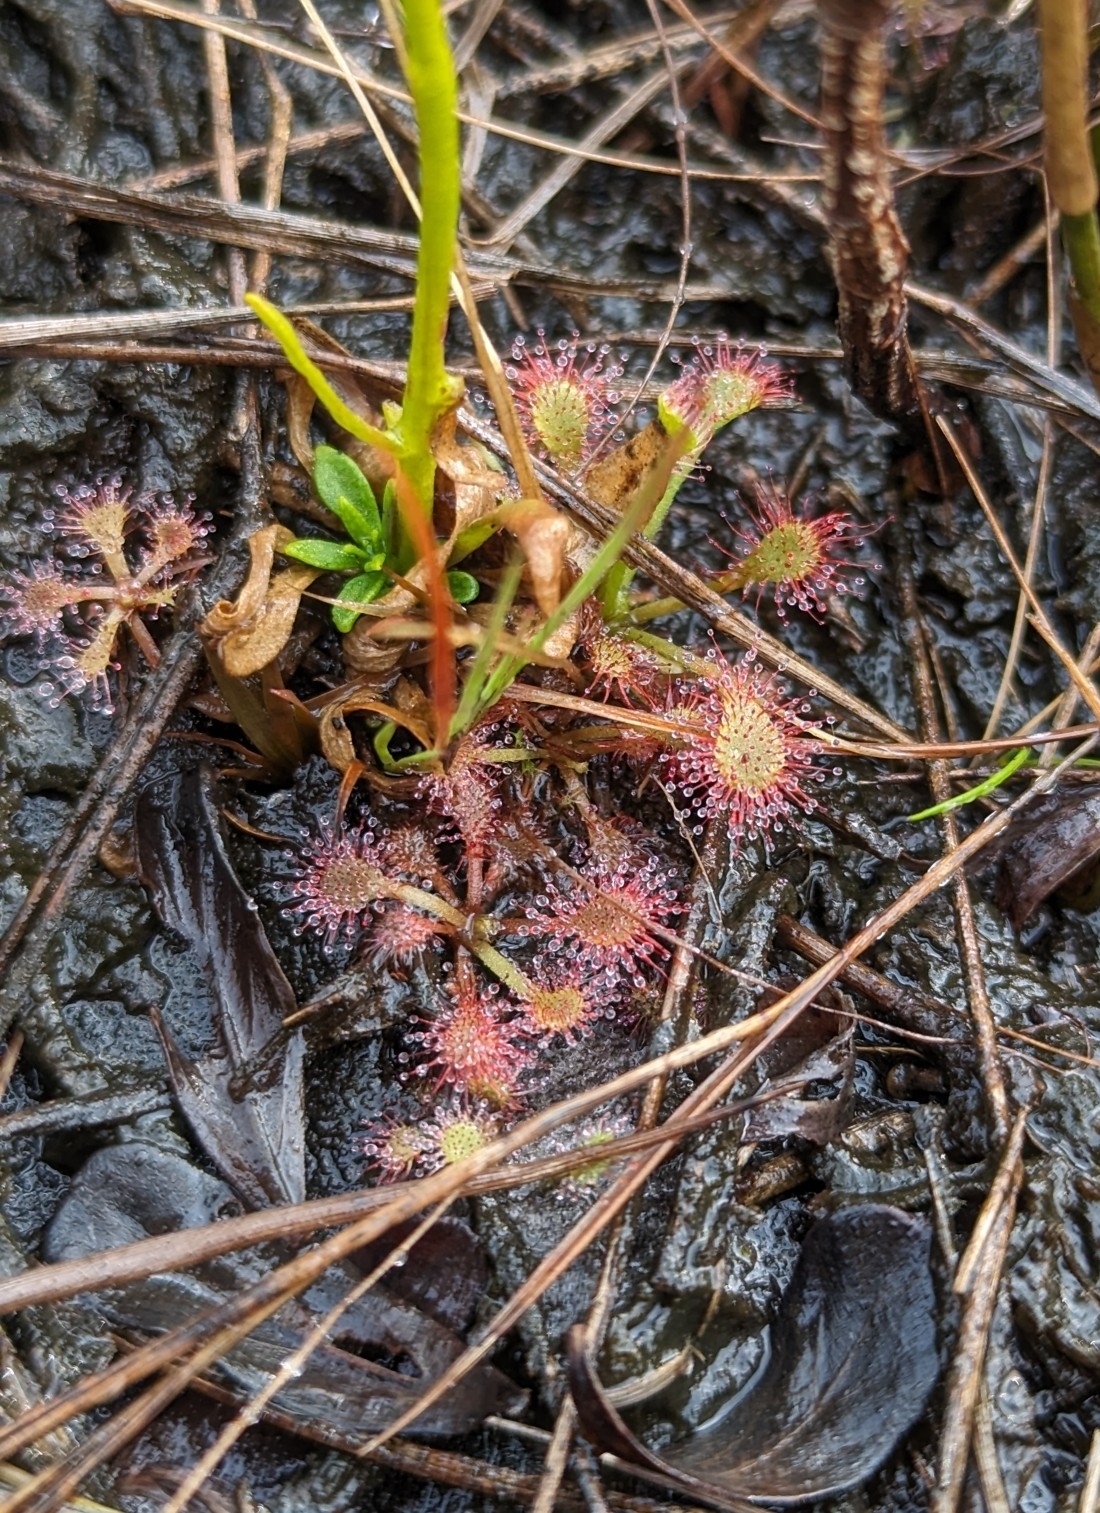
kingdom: Plantae
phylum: Tracheophyta
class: Magnoliopsida
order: Caryophyllales
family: Droseraceae
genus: Drosera
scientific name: Drosera capillaris
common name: Pink sundew
